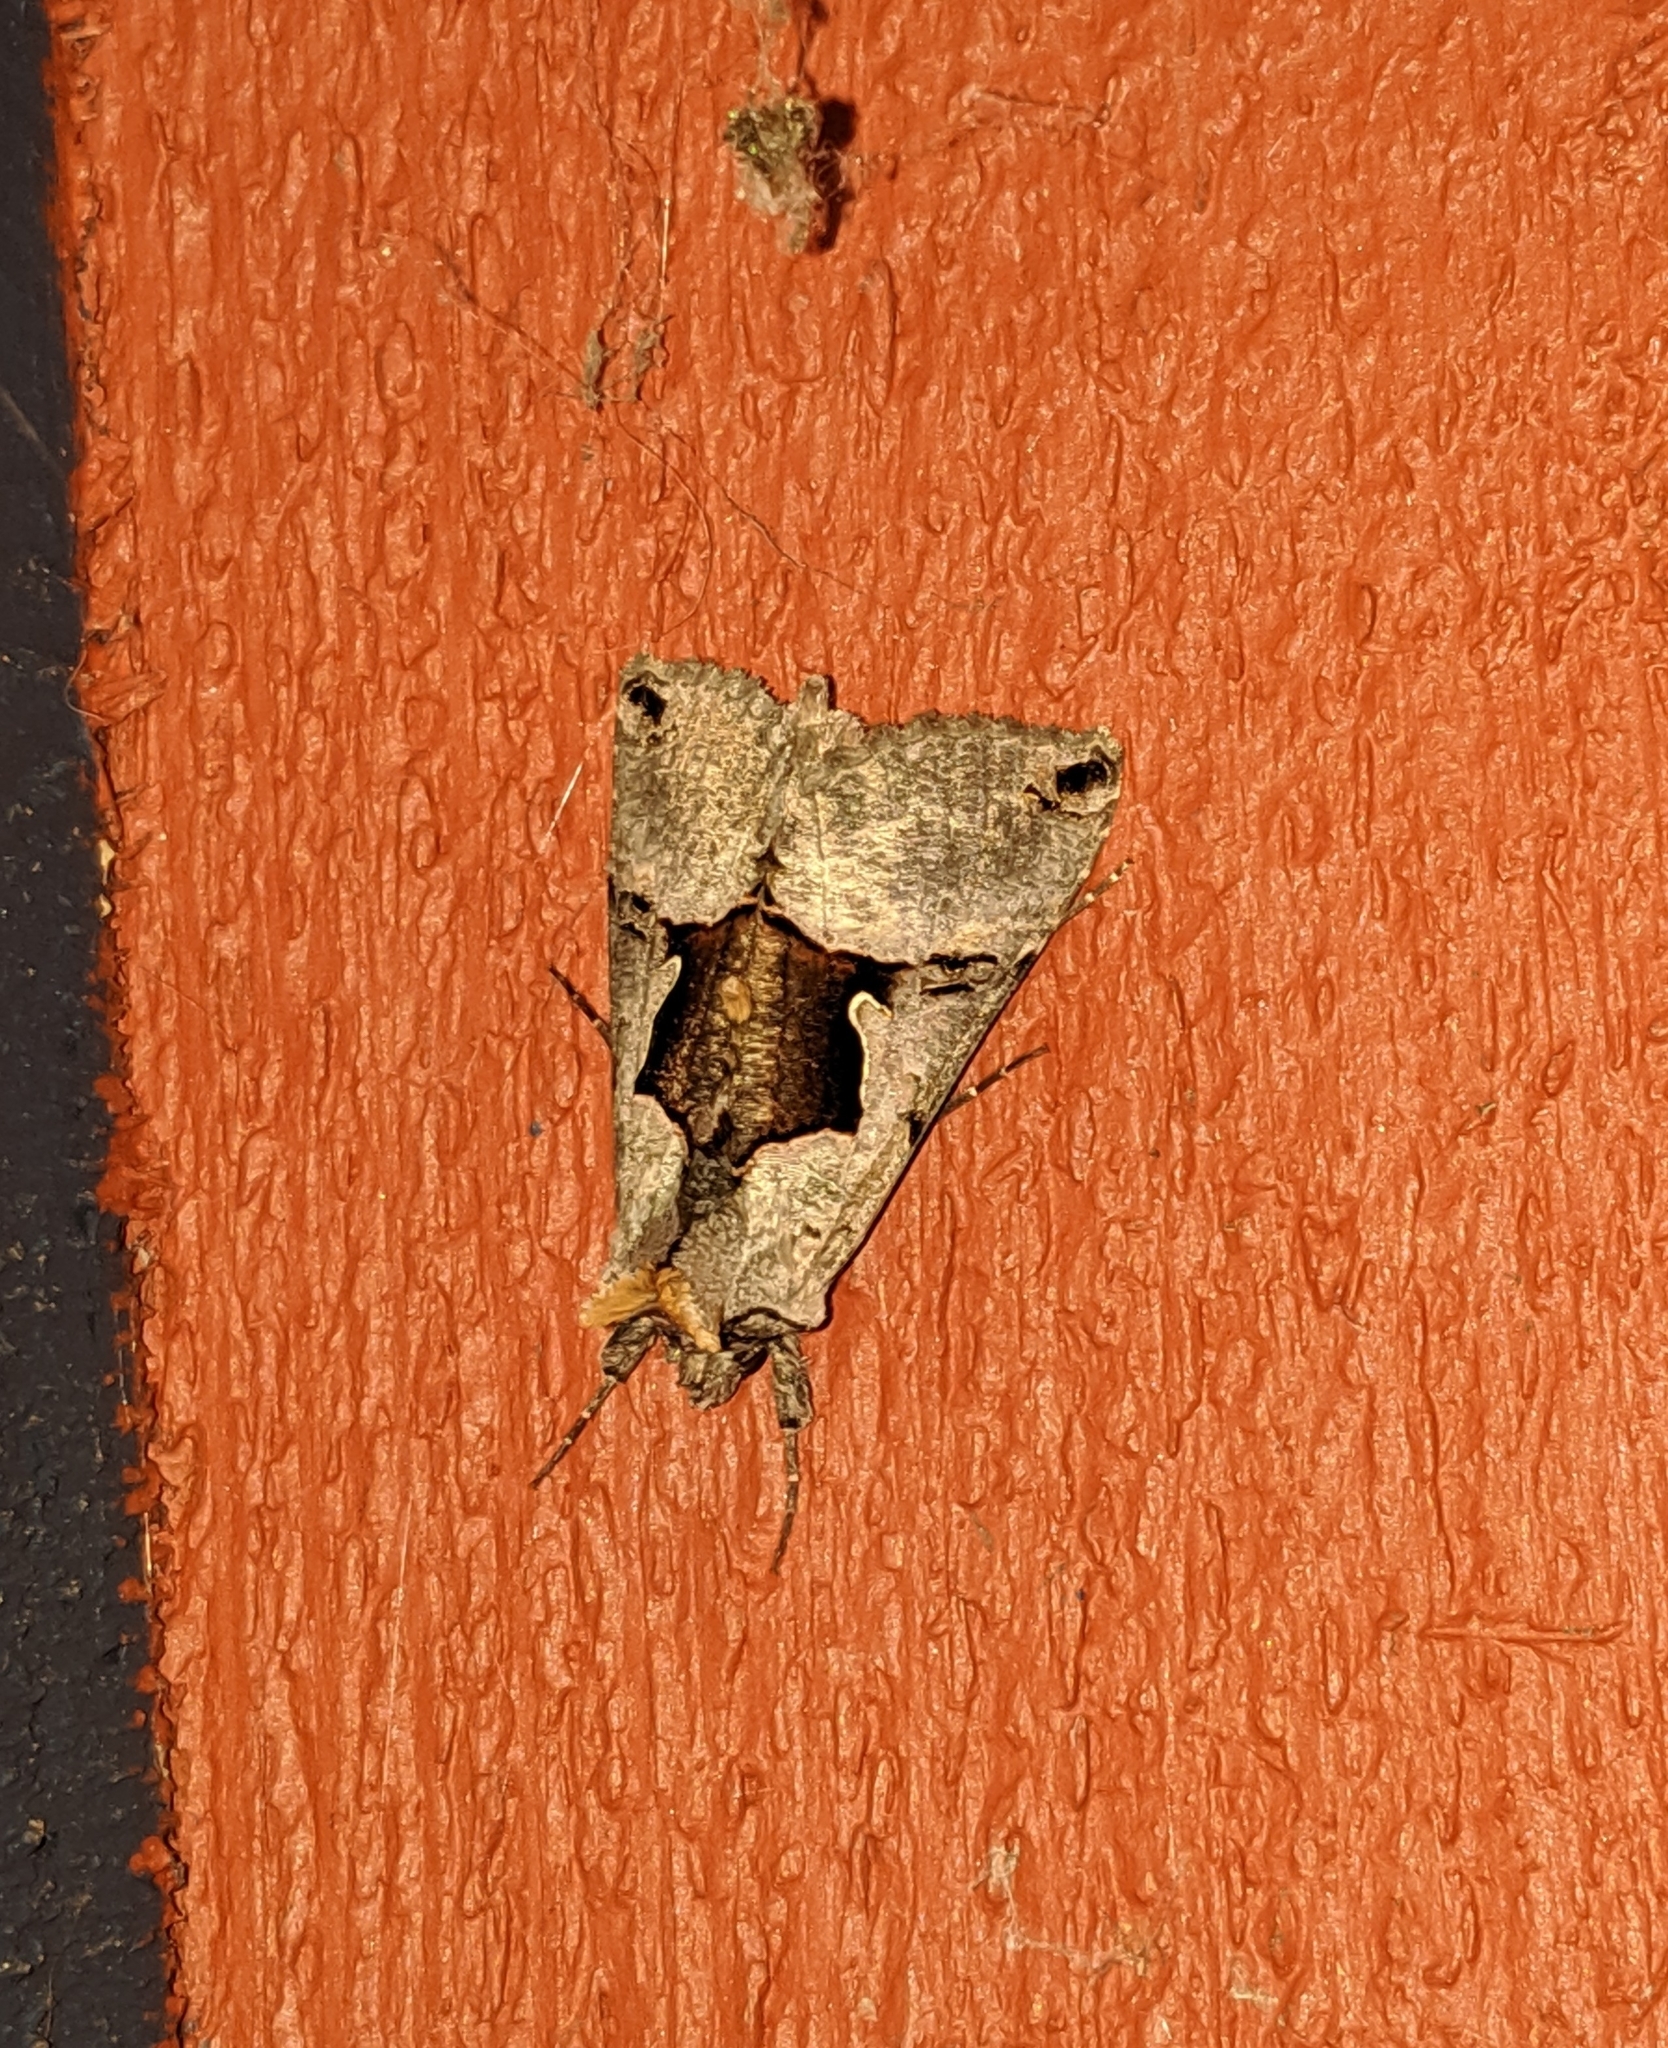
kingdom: Animalia
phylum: Arthropoda
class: Insecta
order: Lepidoptera
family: Noctuidae
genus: Autographa
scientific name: Autographa ampla
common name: Large looper moth
